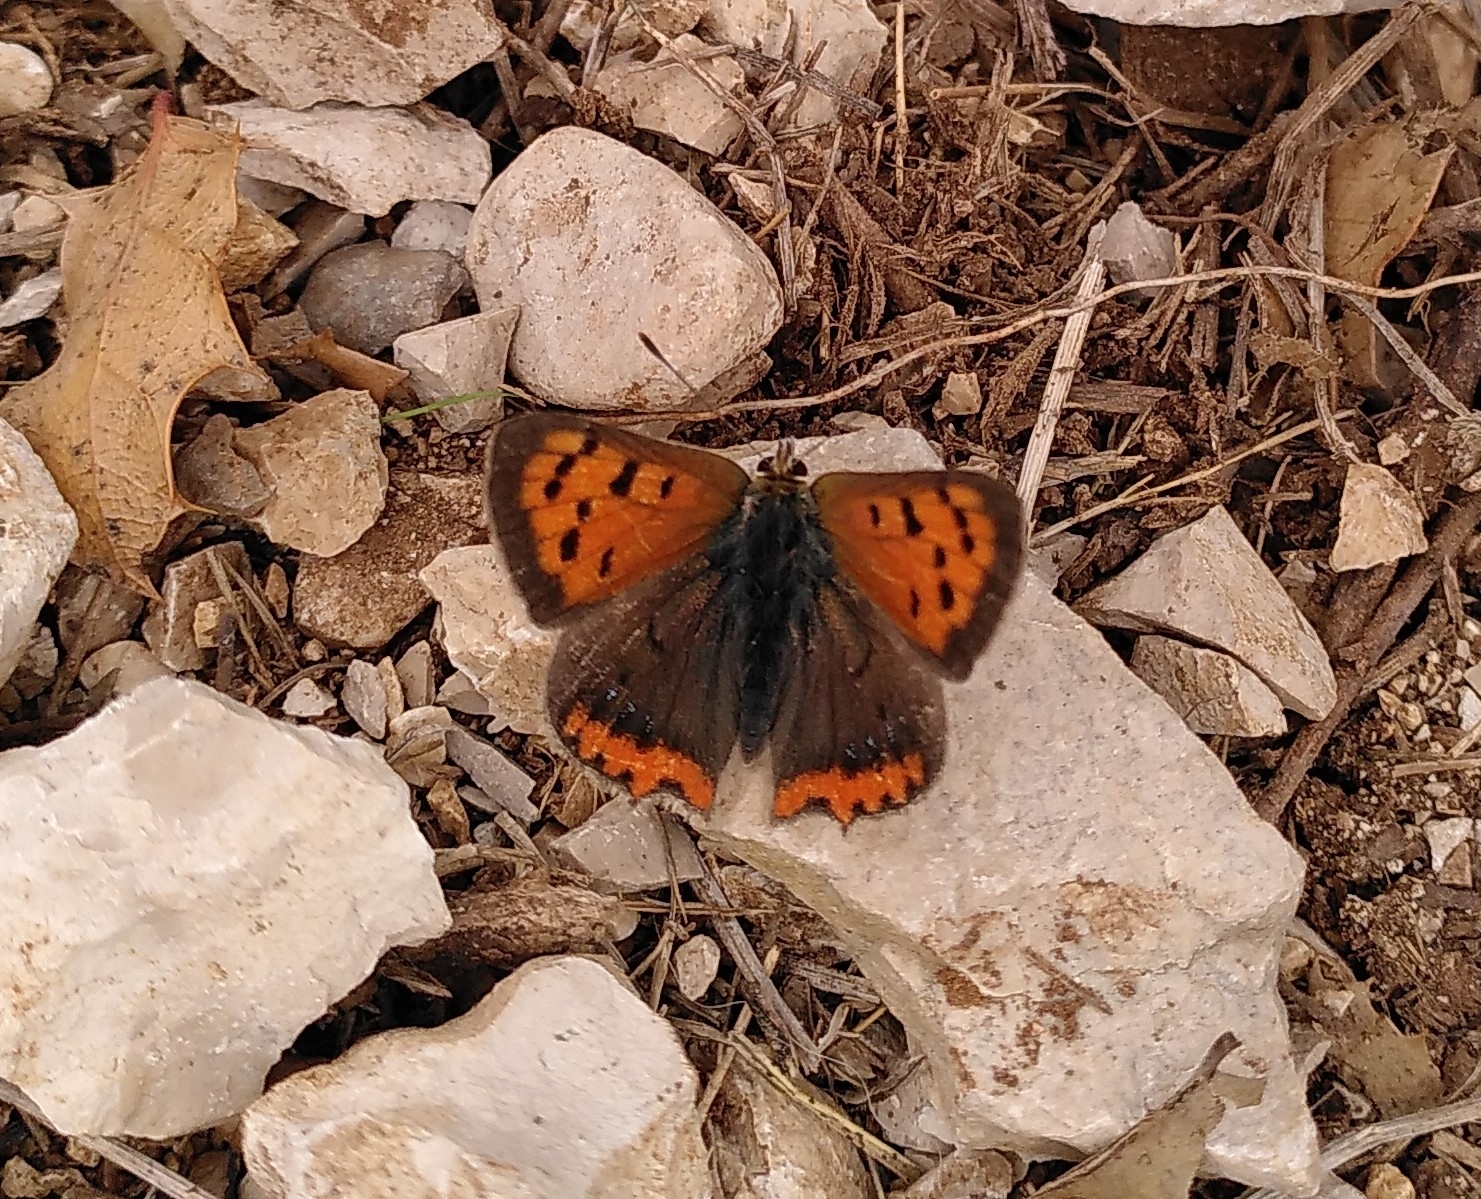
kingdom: Animalia
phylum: Arthropoda
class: Insecta
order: Lepidoptera
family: Lycaenidae
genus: Lycaena
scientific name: Lycaena phlaeas
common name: Small copper
